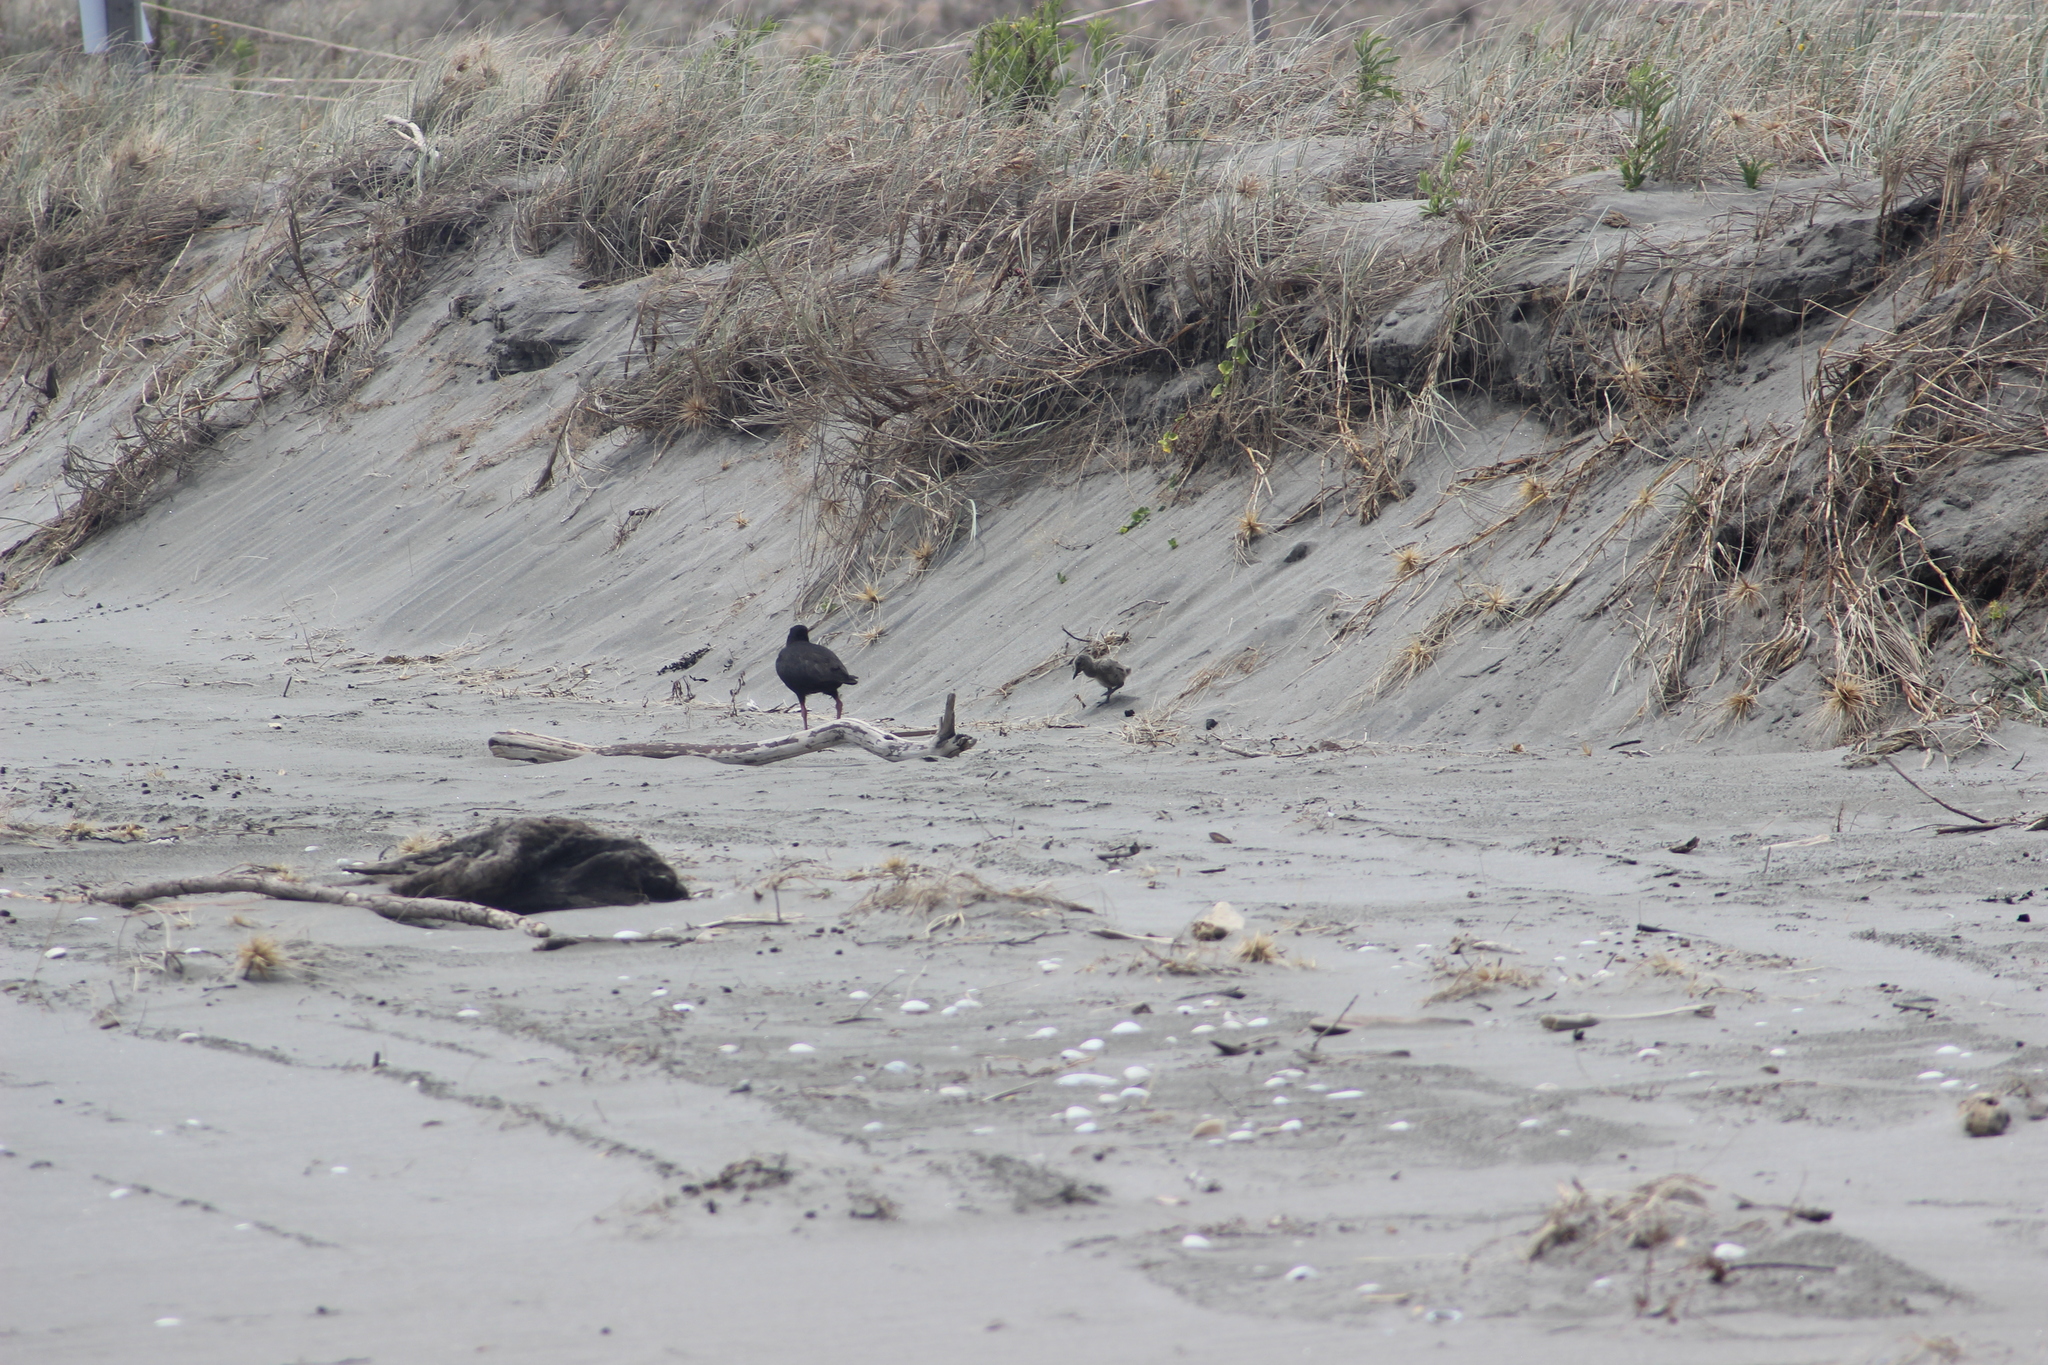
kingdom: Animalia
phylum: Chordata
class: Aves
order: Charadriiformes
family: Haematopodidae
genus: Haematopus
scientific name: Haematopus unicolor
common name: Variable oystercatcher
